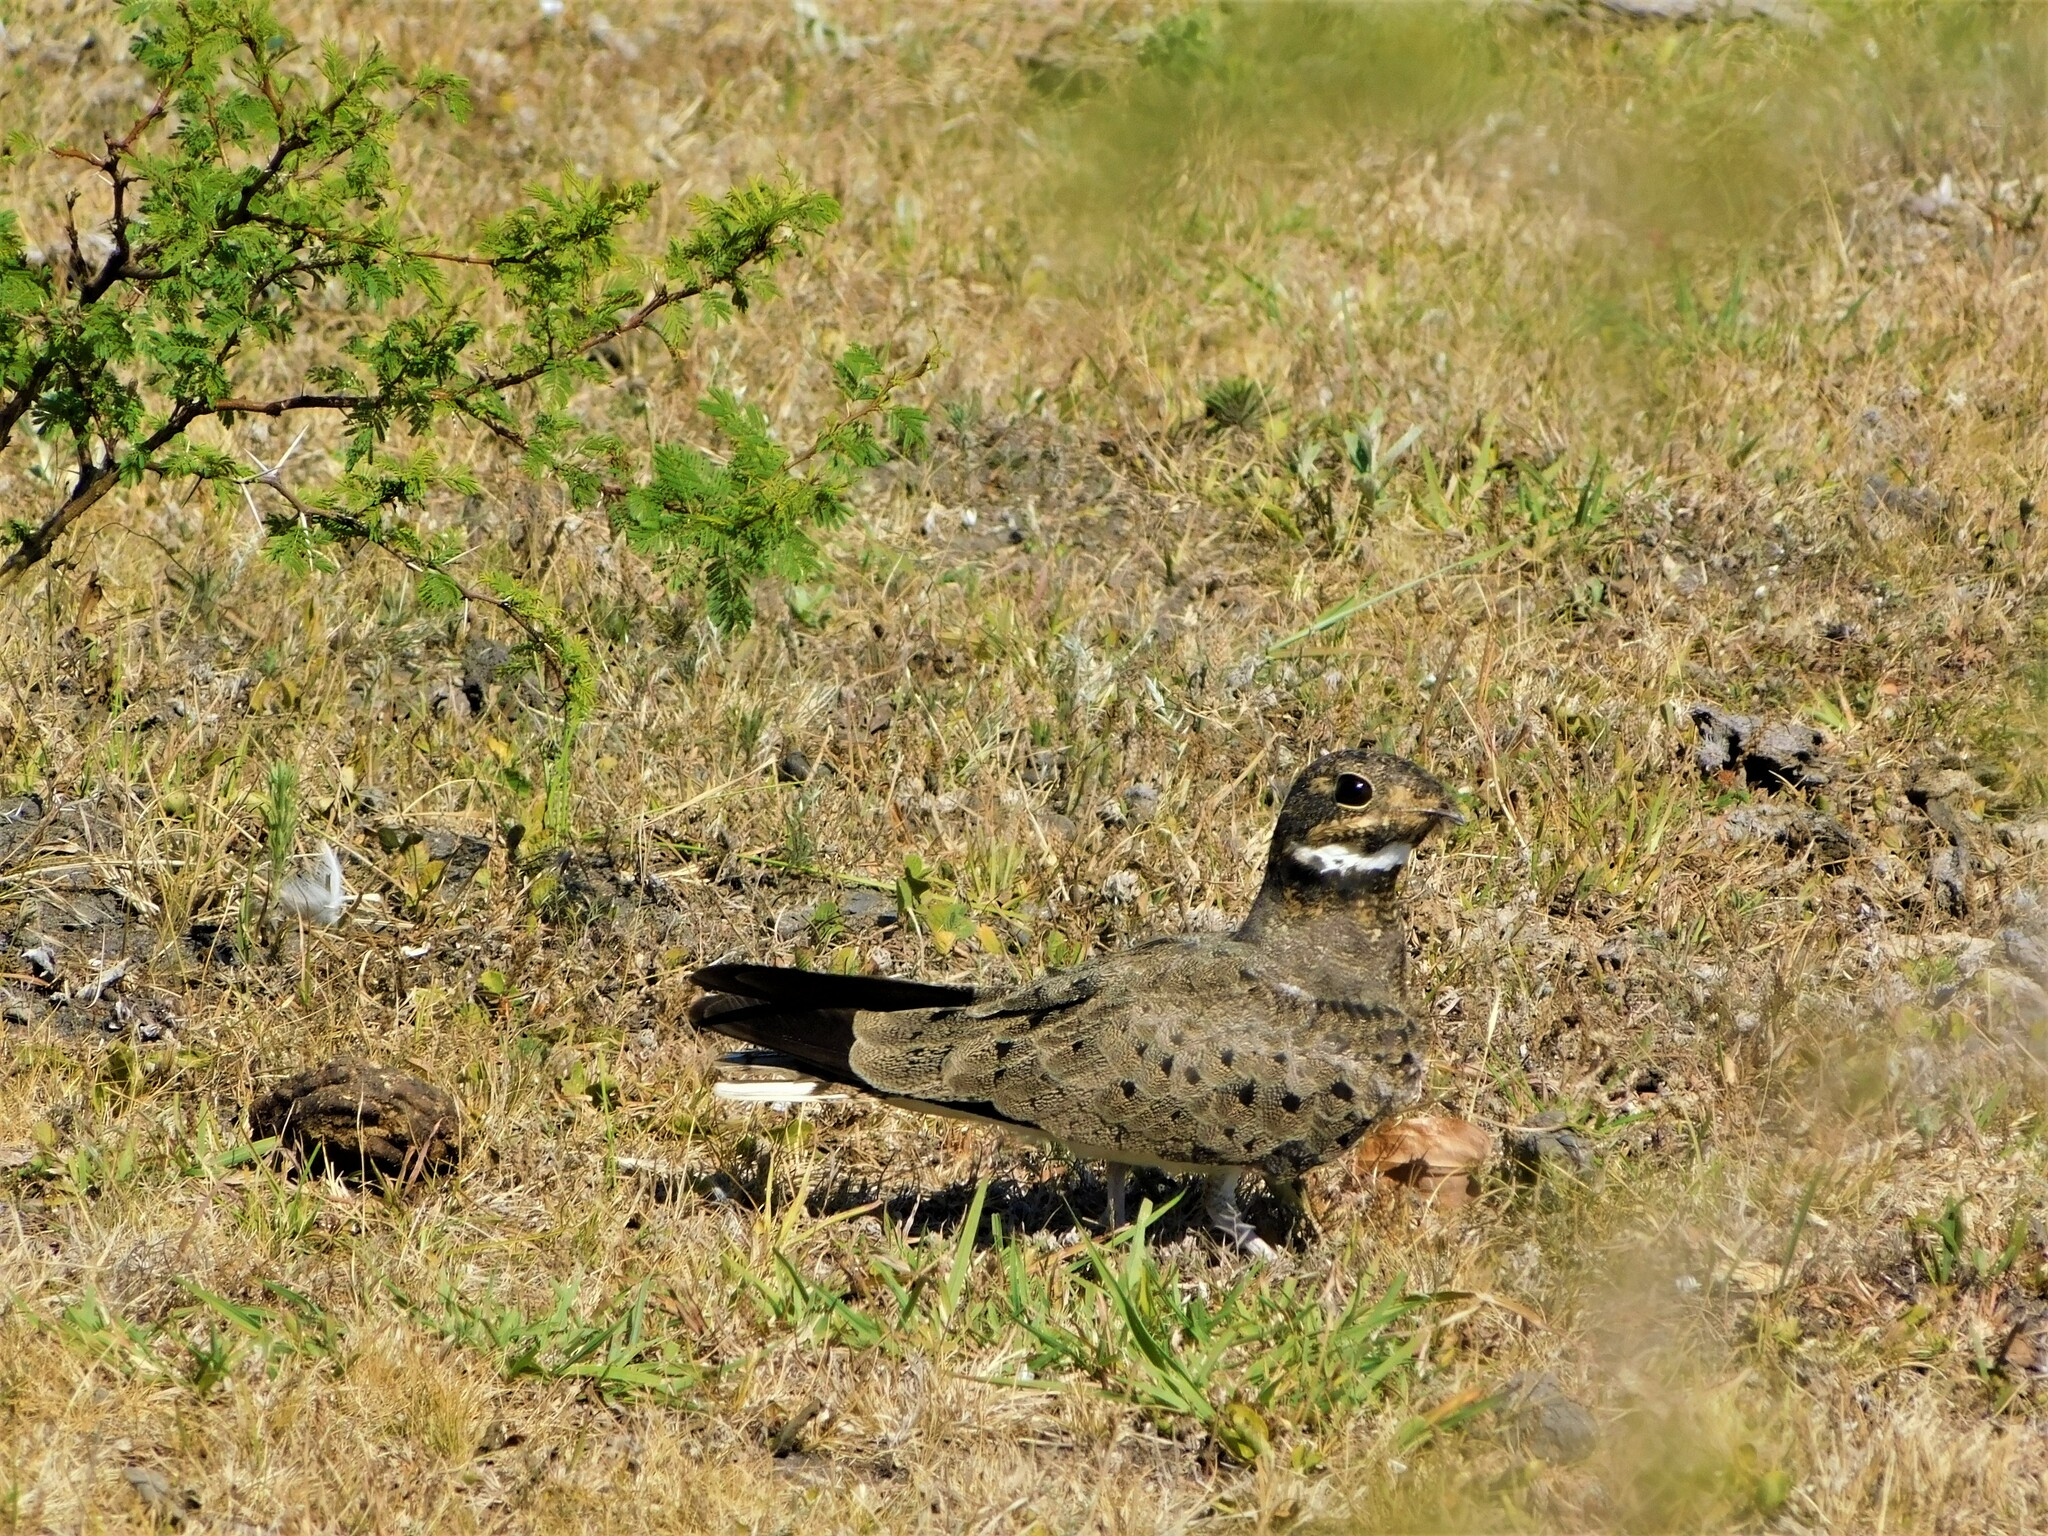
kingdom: Animalia
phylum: Chordata
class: Aves
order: Caprimulgiformes
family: Caprimulgidae
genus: Chordeiles
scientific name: Chordeiles nacunda
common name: Nacunda nighthawk
